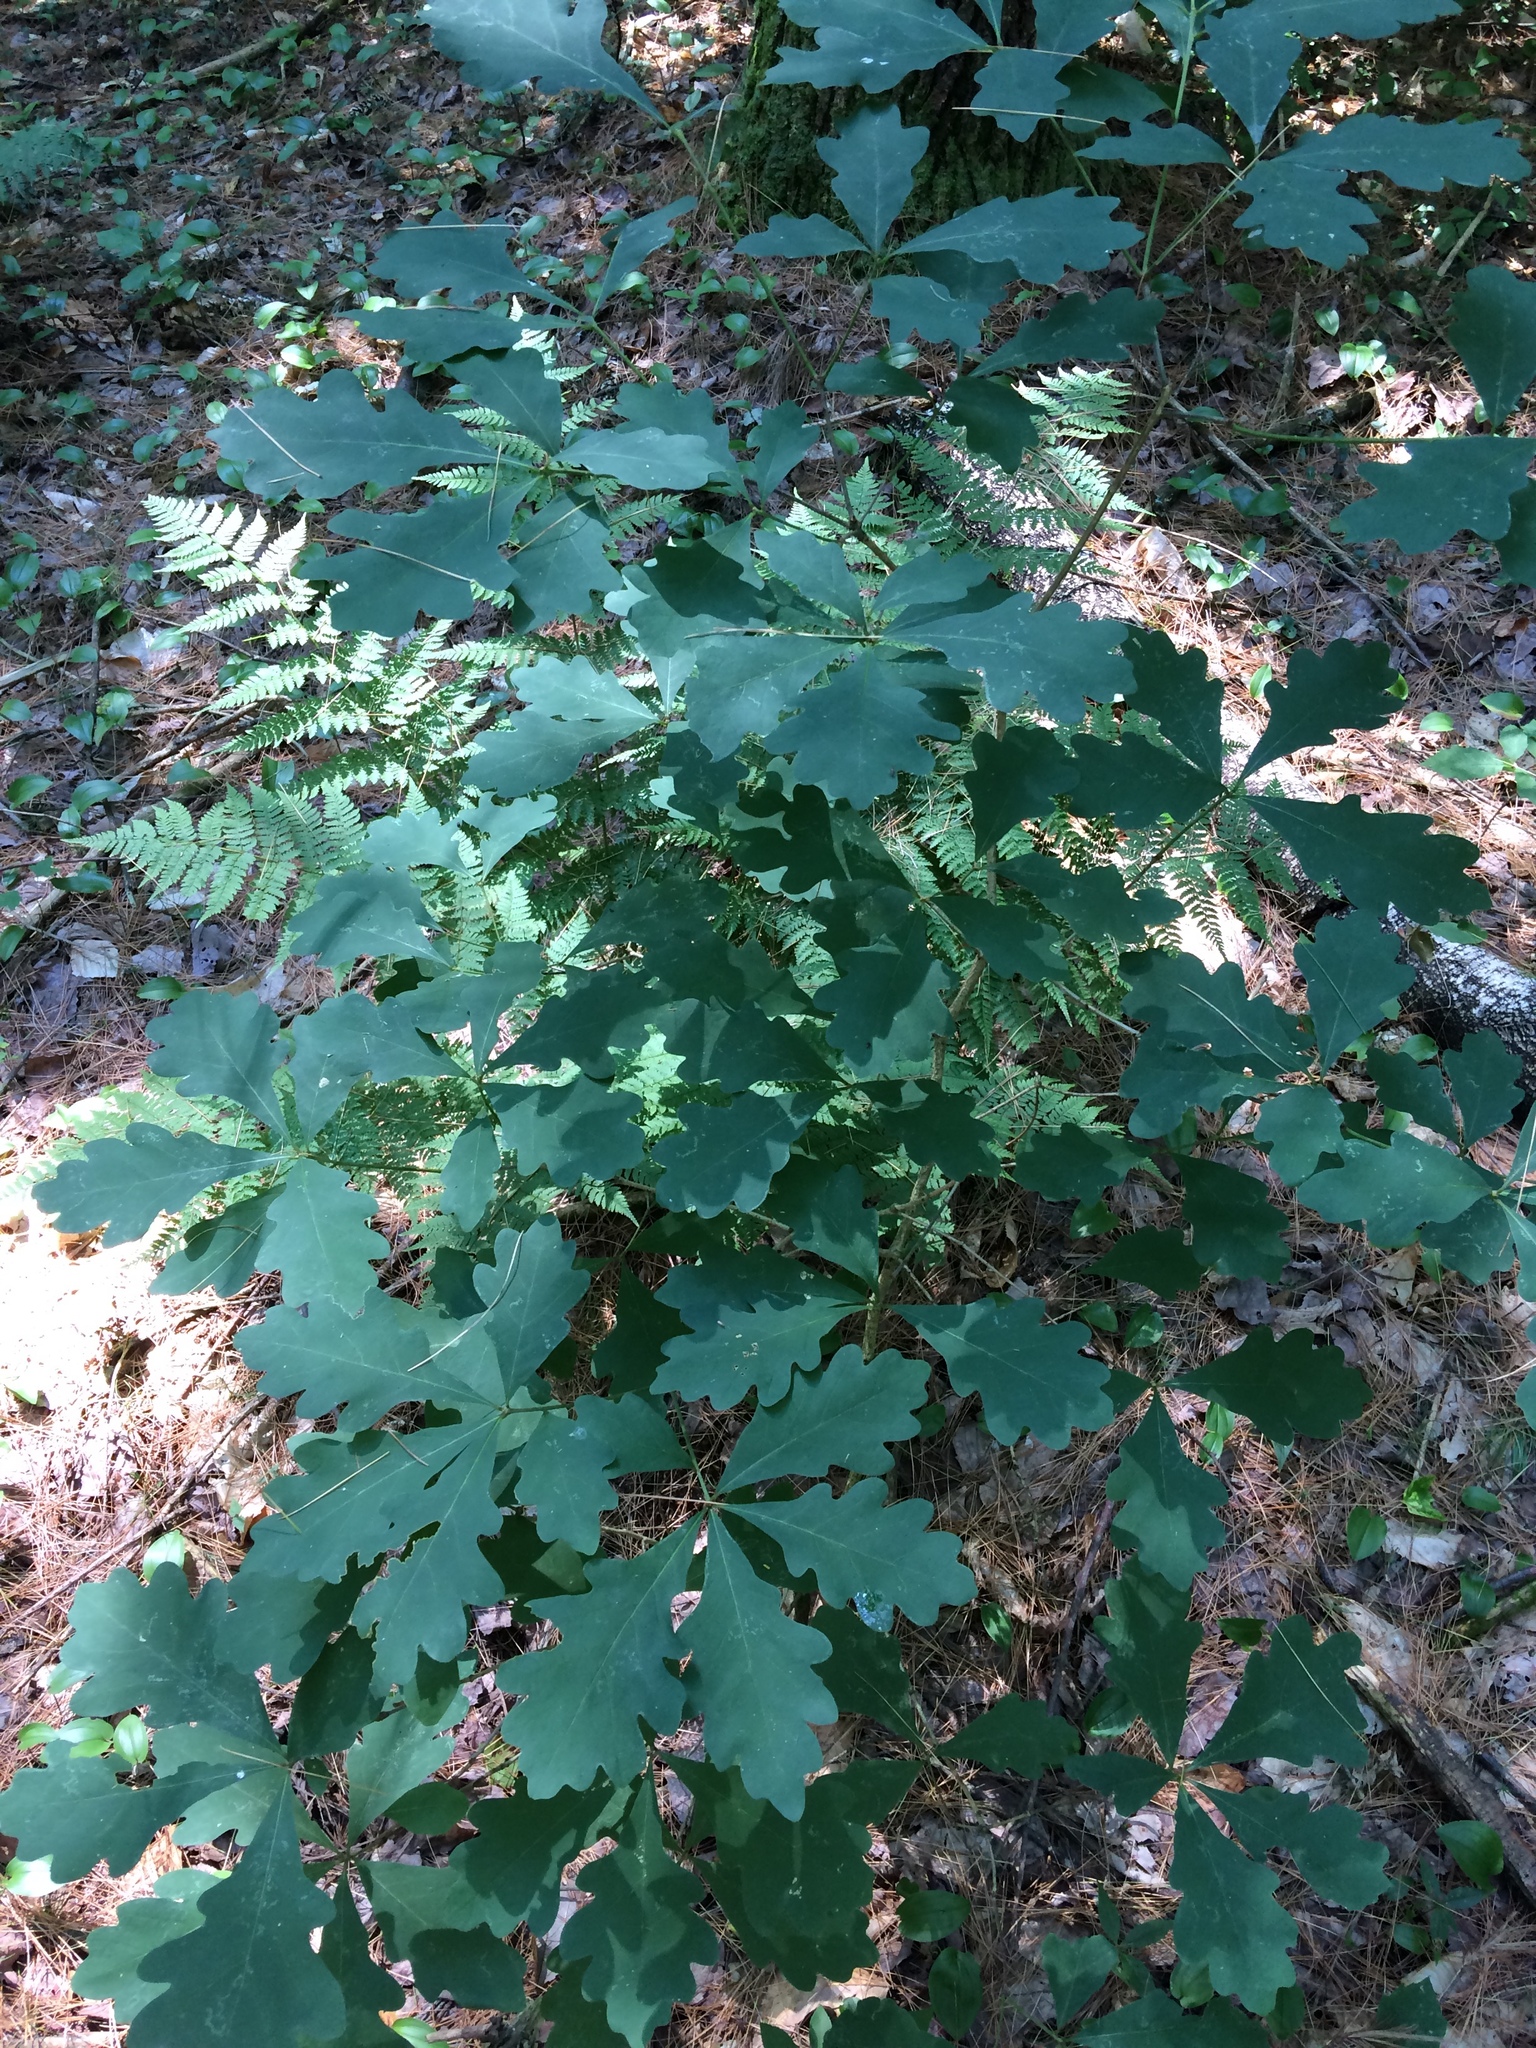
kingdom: Plantae
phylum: Tracheophyta
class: Magnoliopsida
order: Fagales
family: Fagaceae
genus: Quercus
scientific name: Quercus alba
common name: White oak
